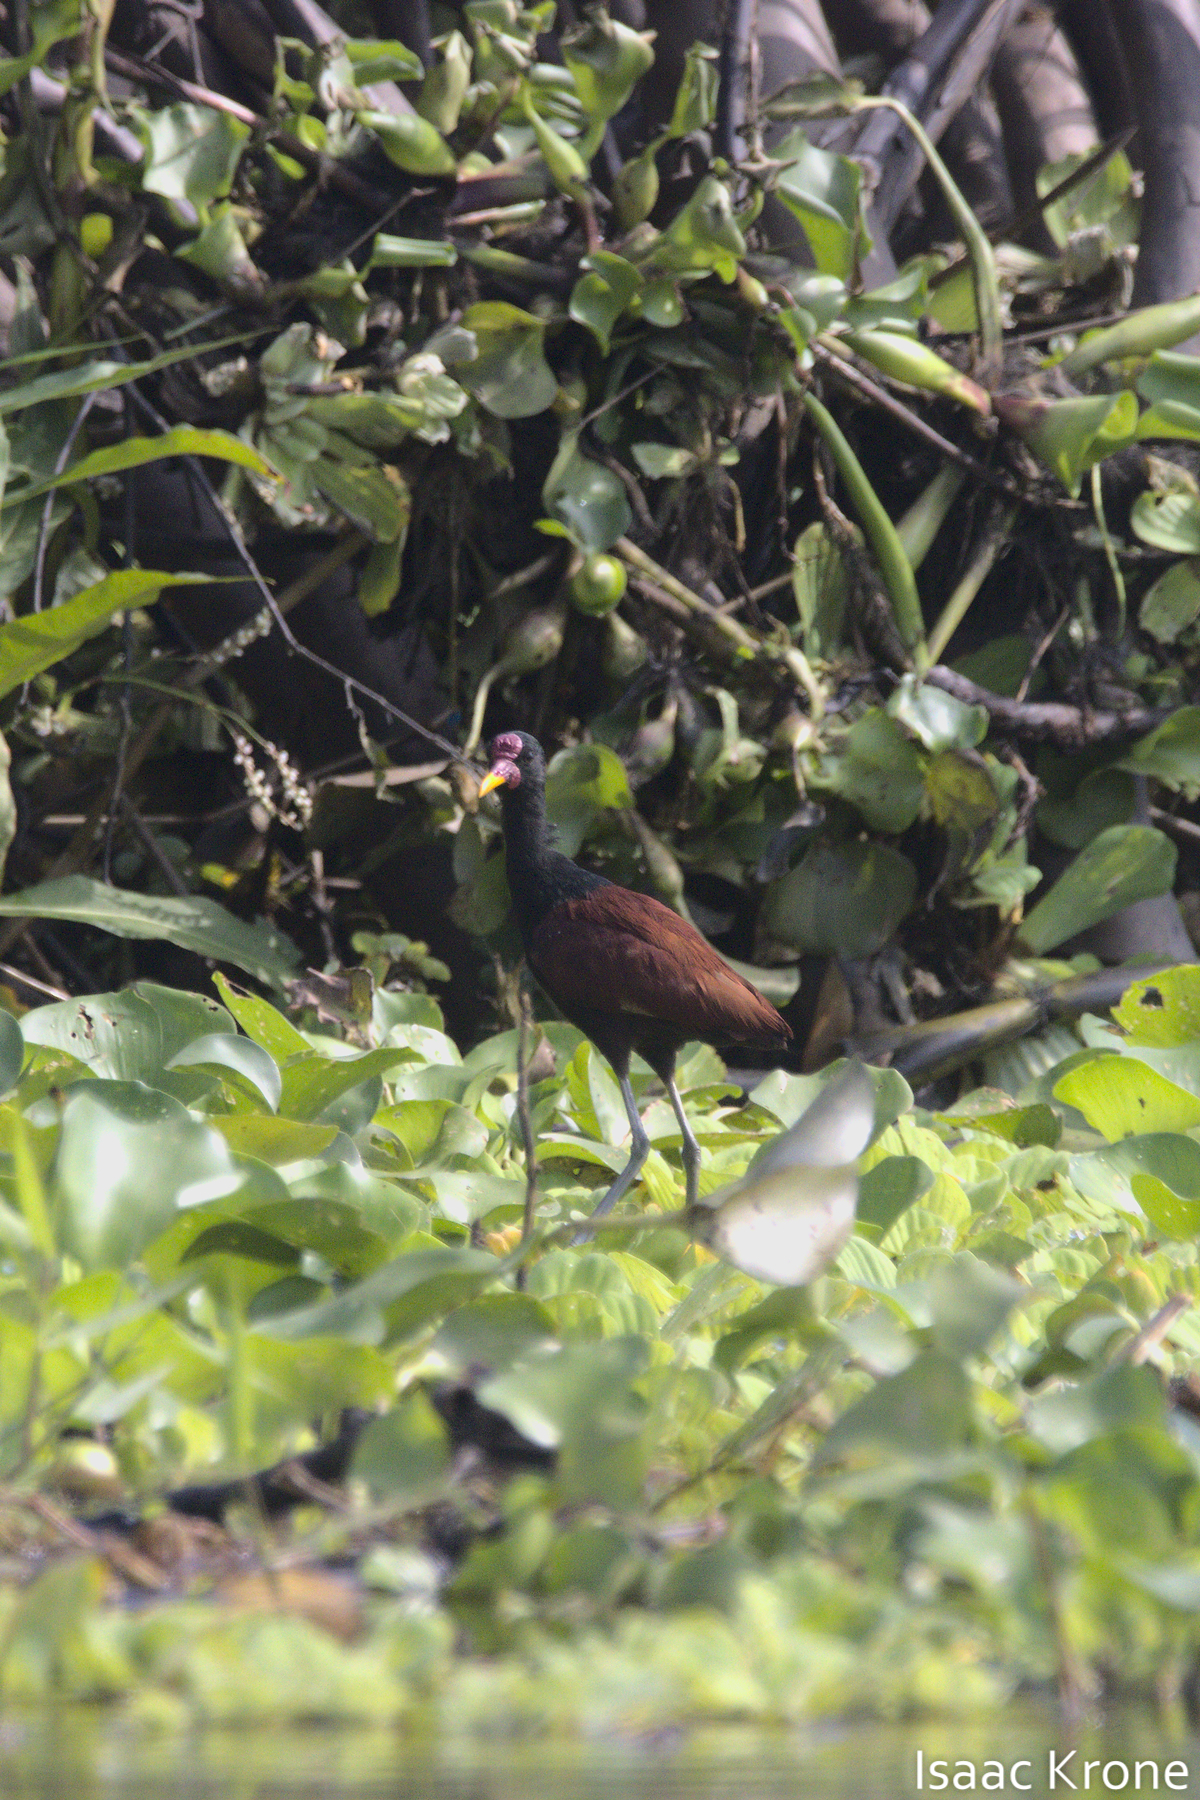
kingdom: Animalia
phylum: Chordata
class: Aves
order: Charadriiformes
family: Jacanidae
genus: Jacana
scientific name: Jacana jacana
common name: Wattled jacana
